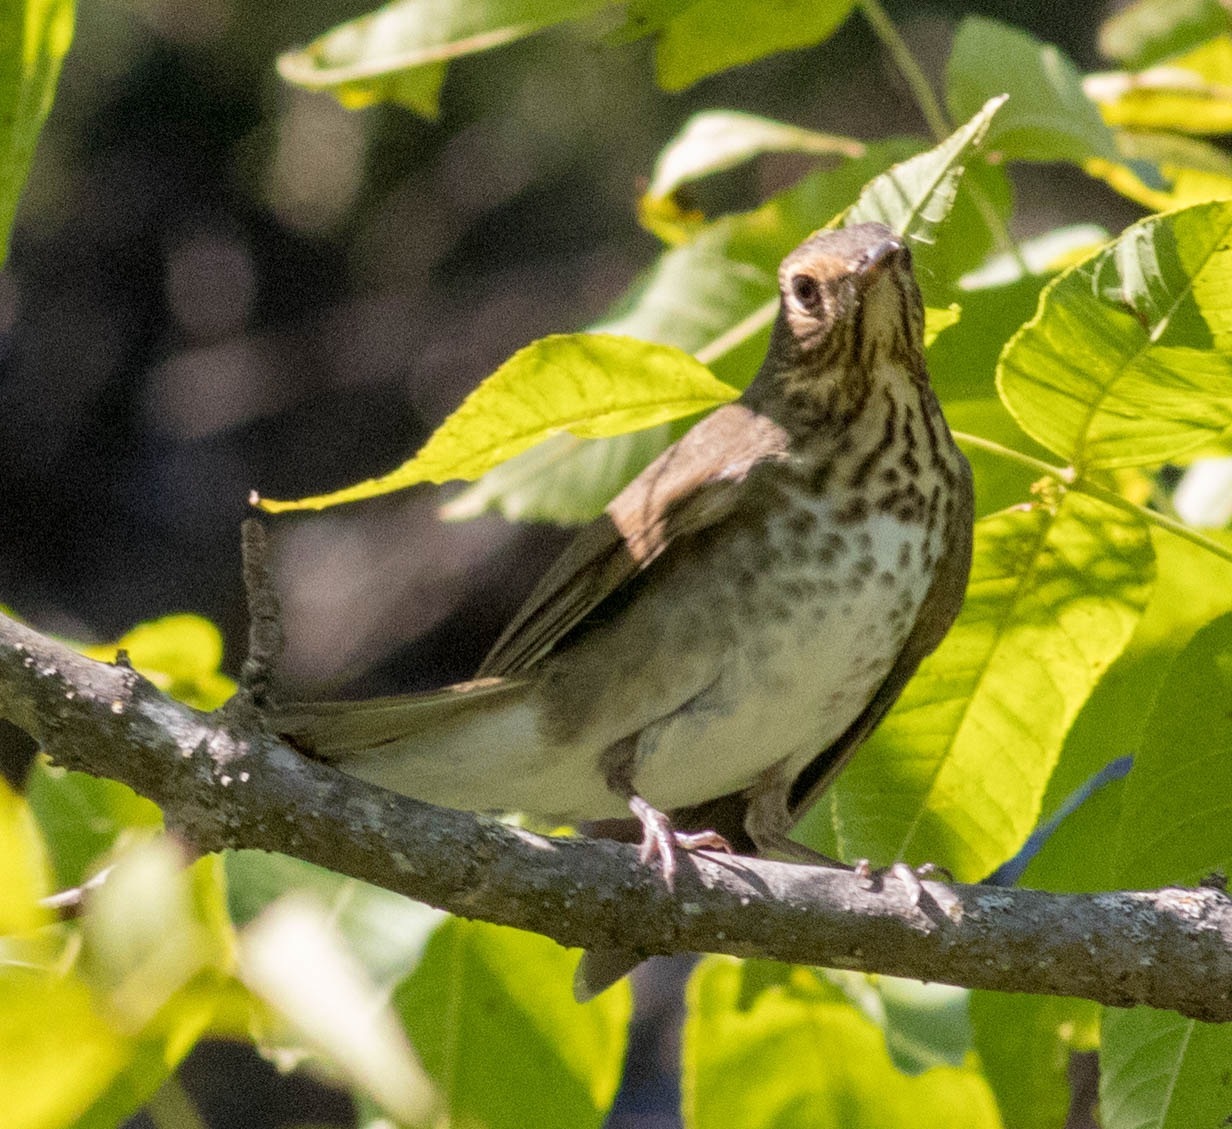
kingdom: Animalia
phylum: Chordata
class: Aves
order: Passeriformes
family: Turdidae
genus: Catharus
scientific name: Catharus ustulatus
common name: Swainson's thrush
